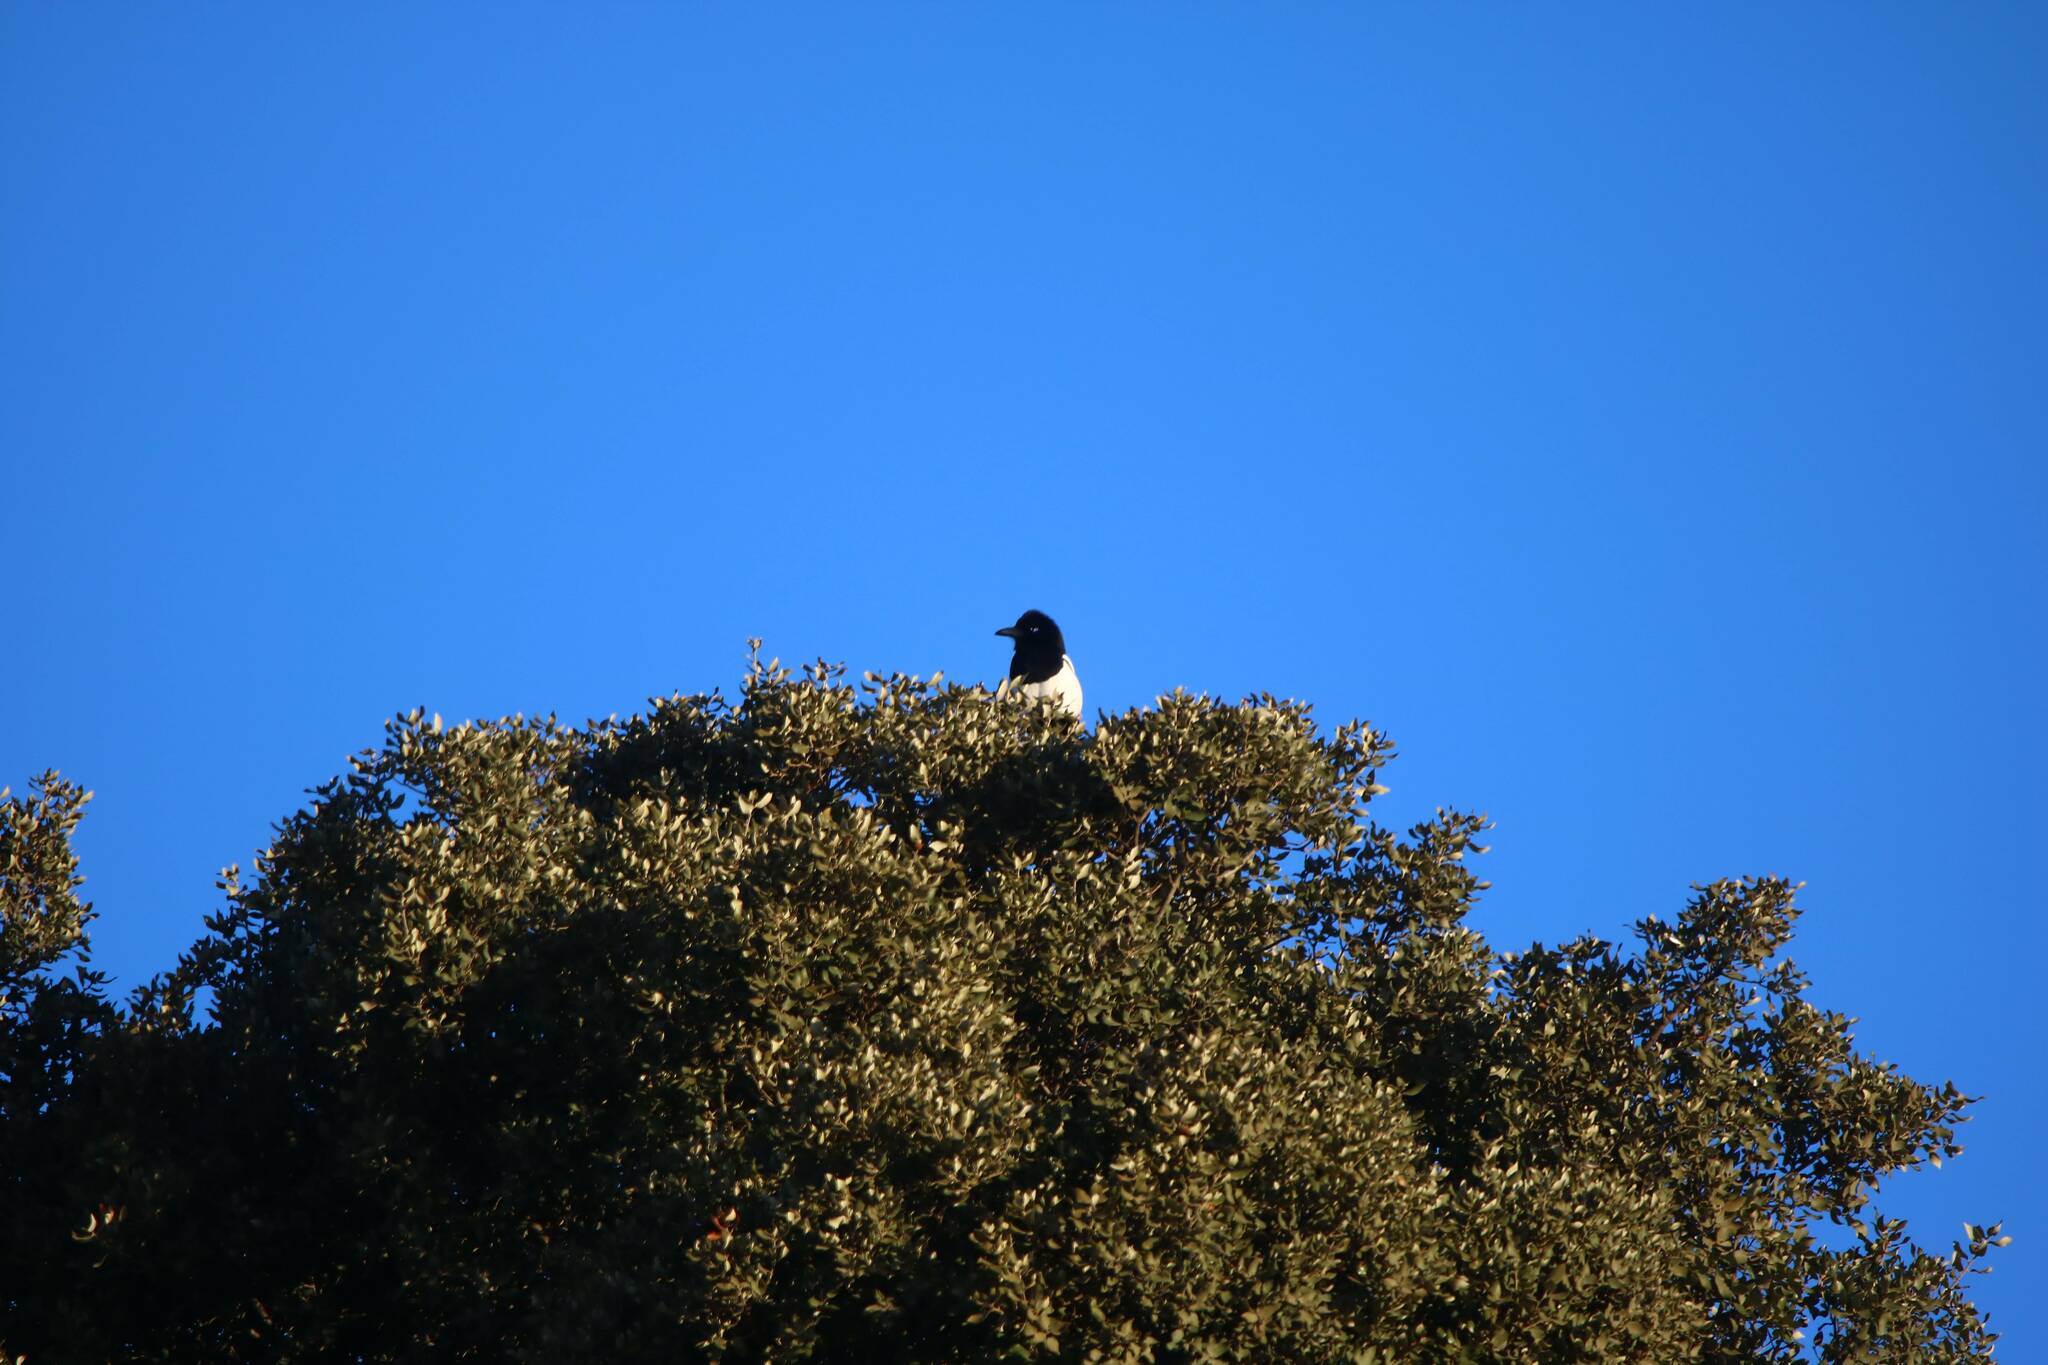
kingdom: Animalia
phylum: Chordata
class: Aves
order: Passeriformes
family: Corvidae
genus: Pica
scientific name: Pica mauritanica
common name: Maghreb magpie
